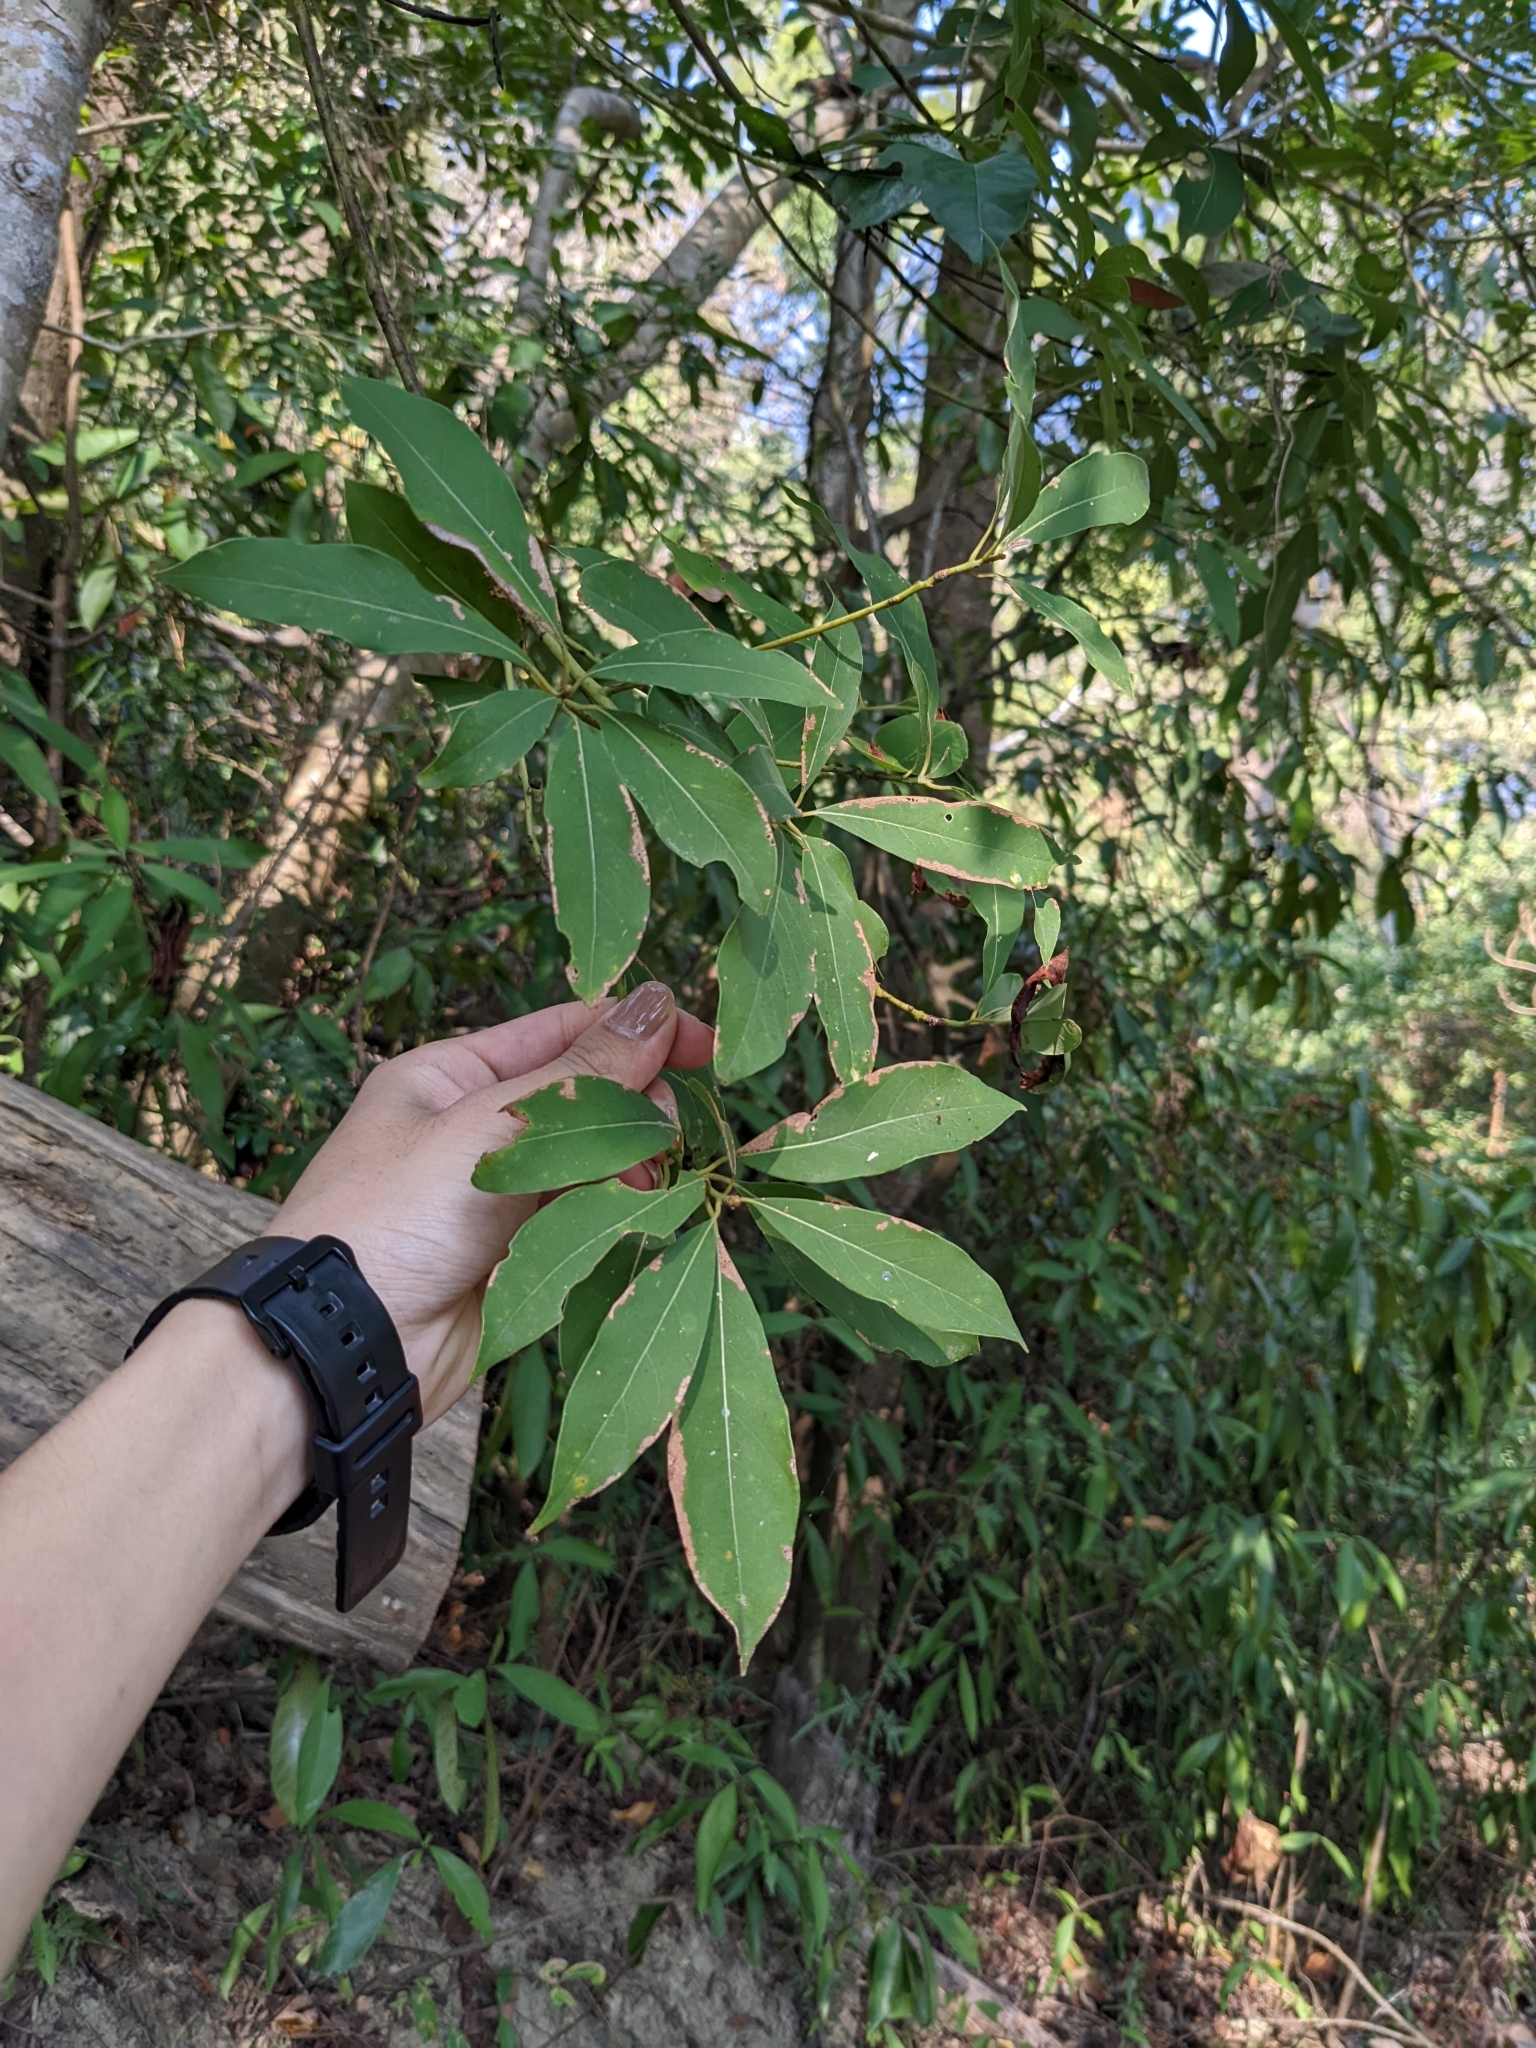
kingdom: Plantae
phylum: Tracheophyta
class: Magnoliopsida
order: Laurales
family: Lauraceae
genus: Machilus
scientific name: Machilus zuihoensis
